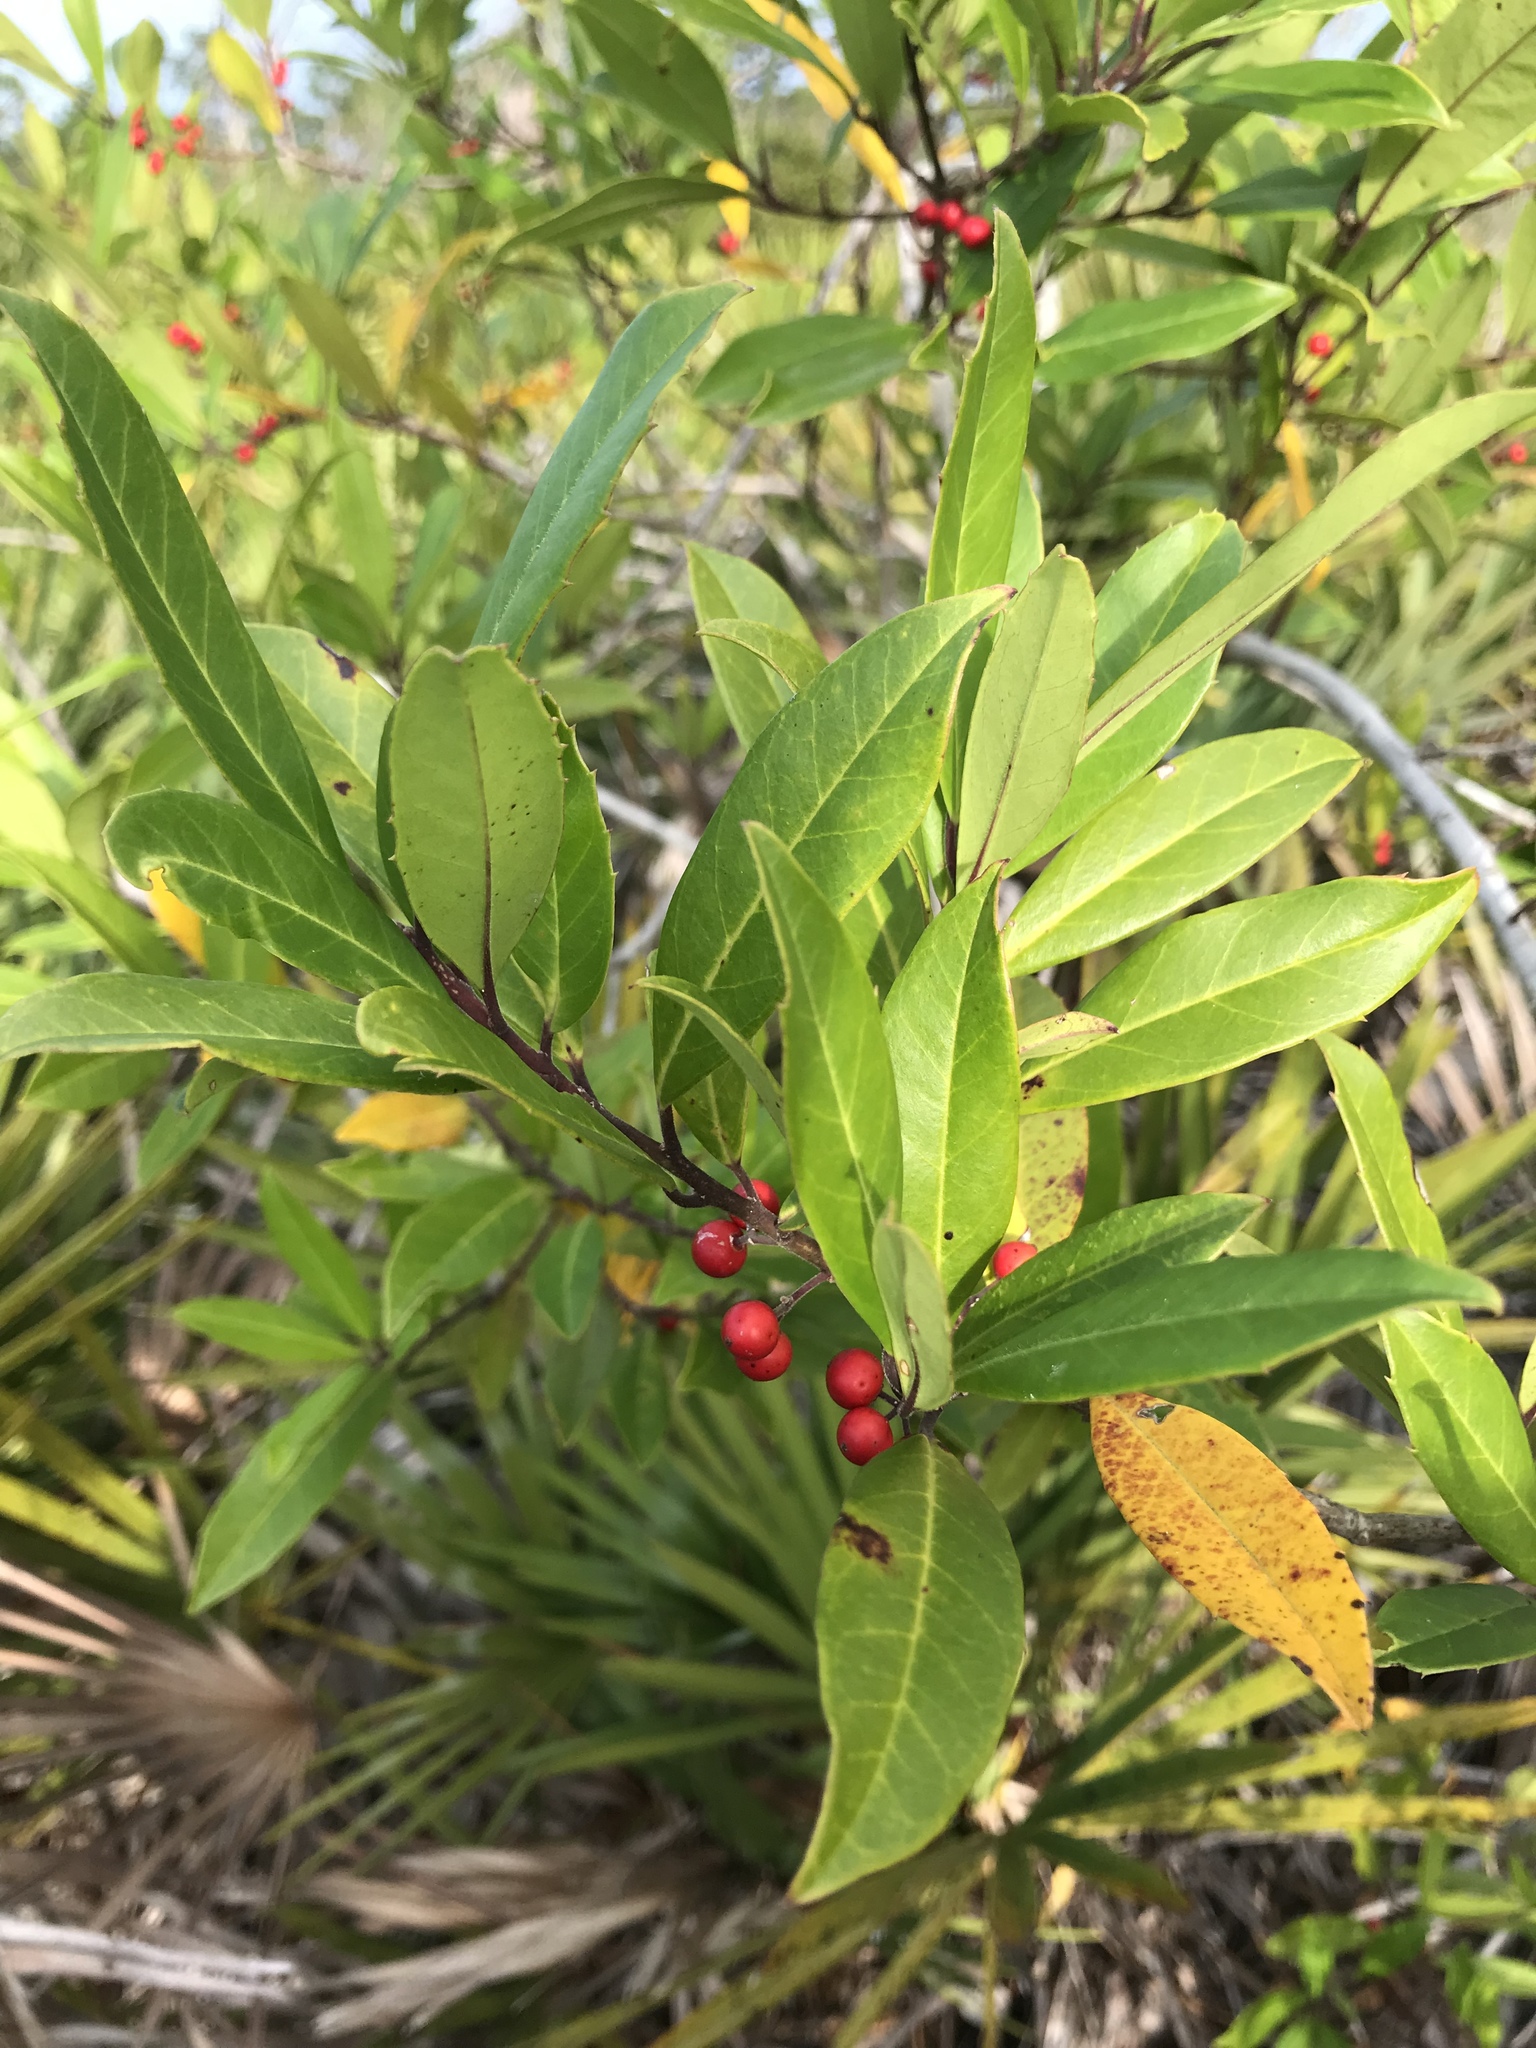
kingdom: Plantae
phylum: Tracheophyta
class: Magnoliopsida
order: Aquifoliales
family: Aquifoliaceae
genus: Ilex
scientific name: Ilex cassine
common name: Dahoon
